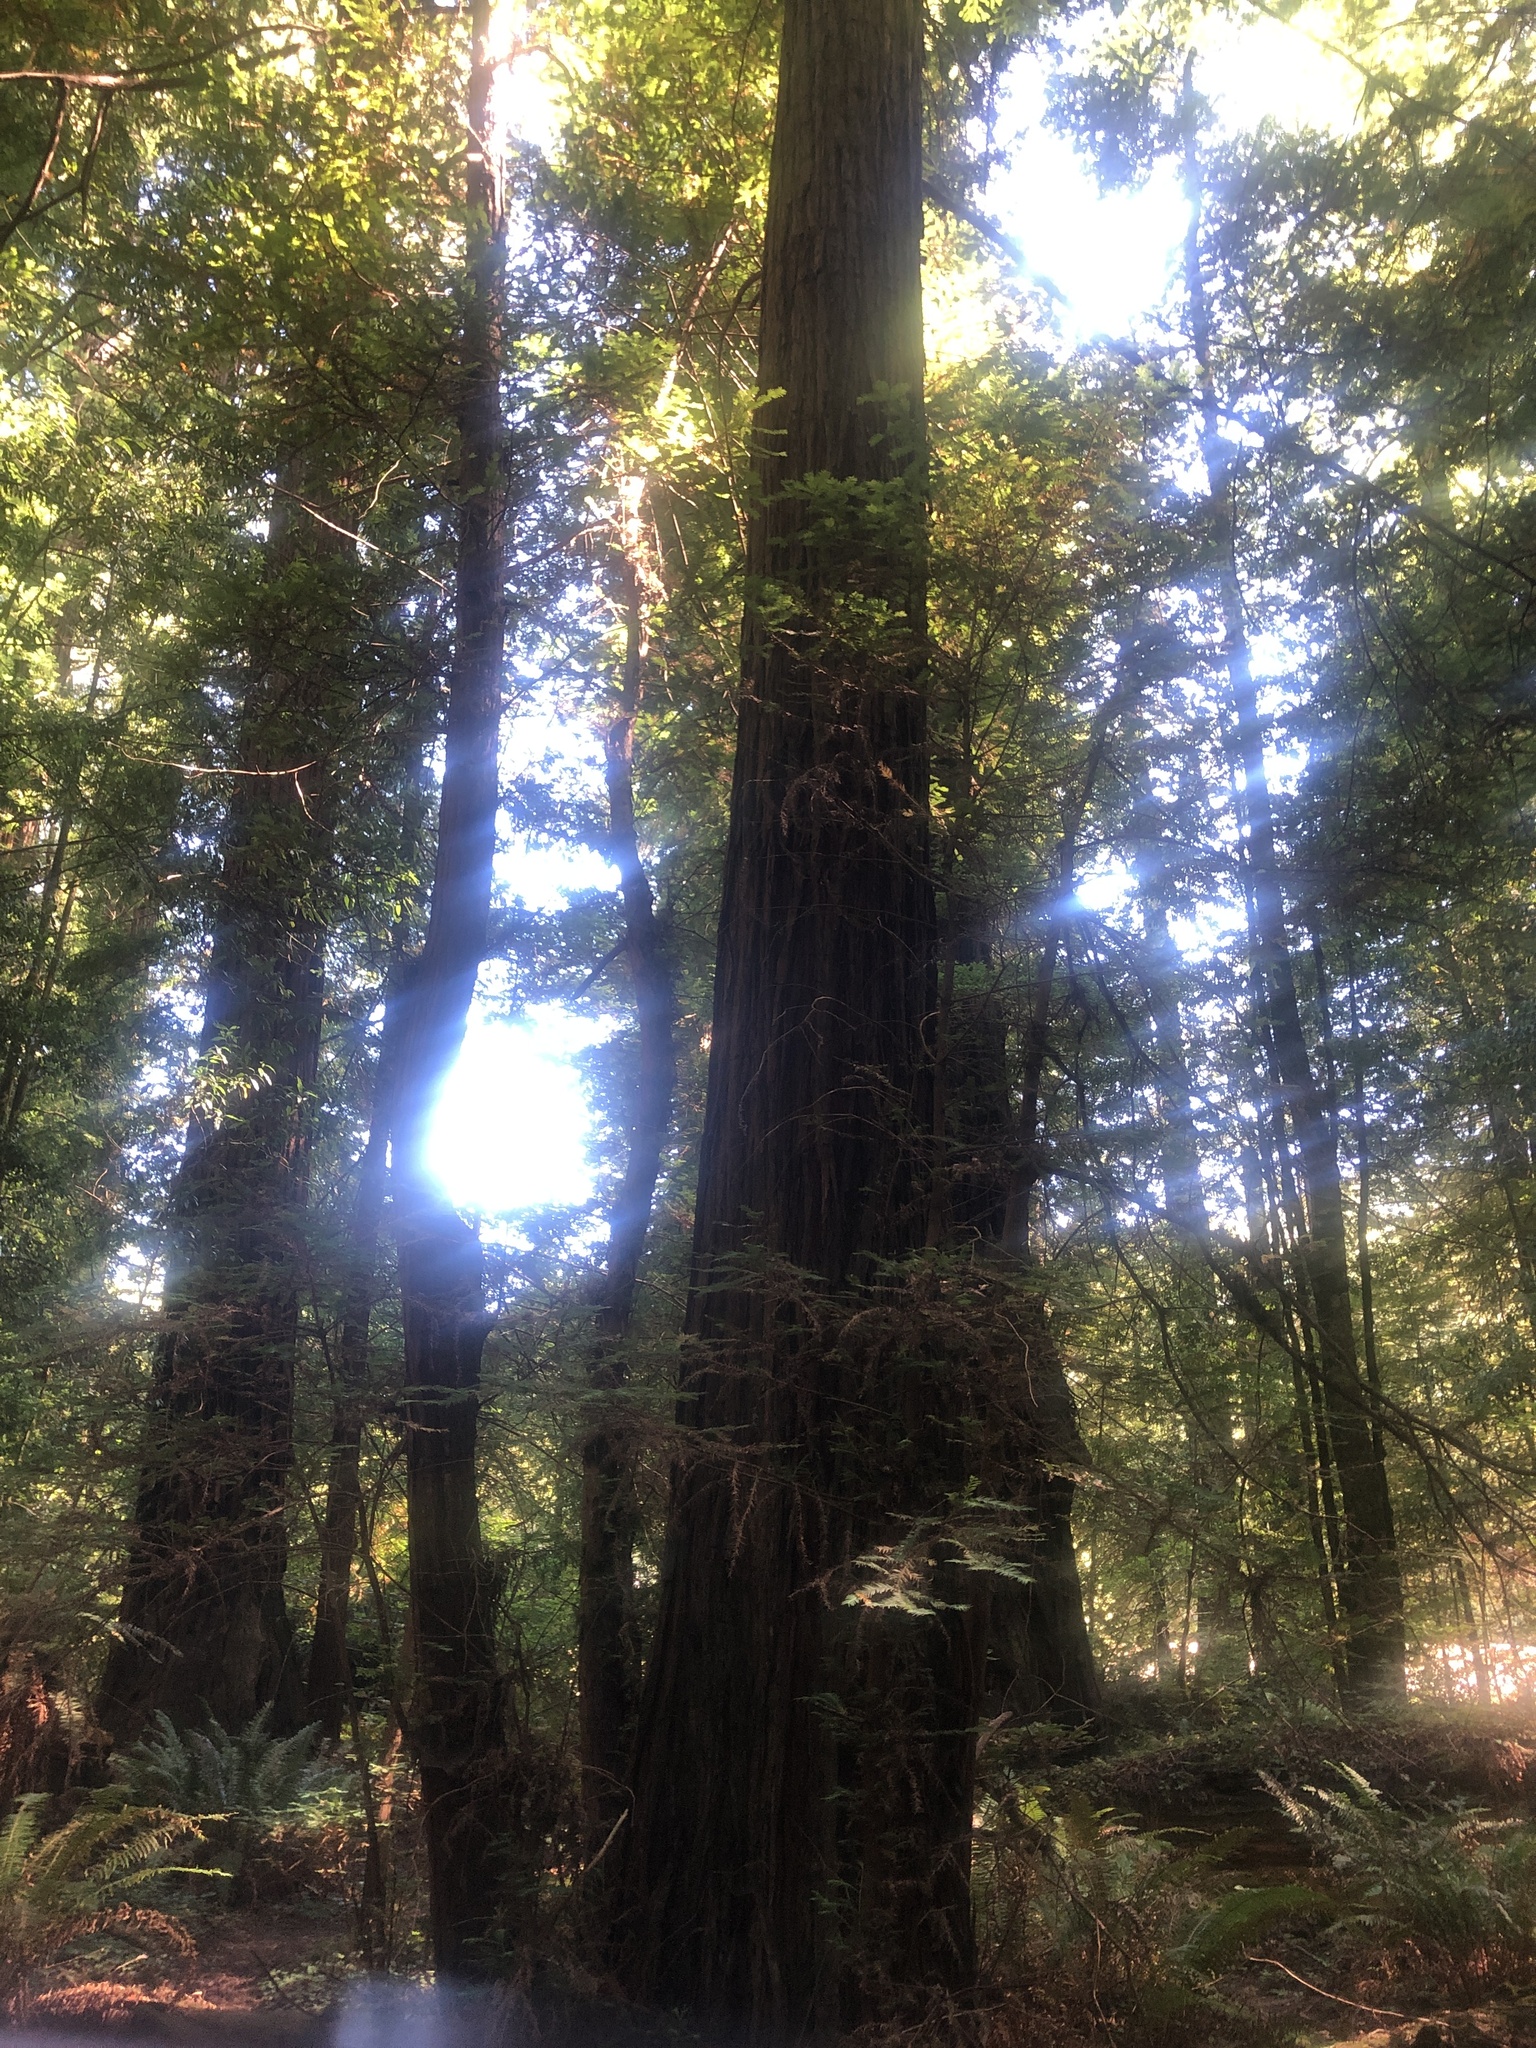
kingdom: Plantae
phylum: Tracheophyta
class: Pinopsida
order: Pinales
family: Cupressaceae
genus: Sequoia
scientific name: Sequoia sempervirens
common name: Coast redwood
